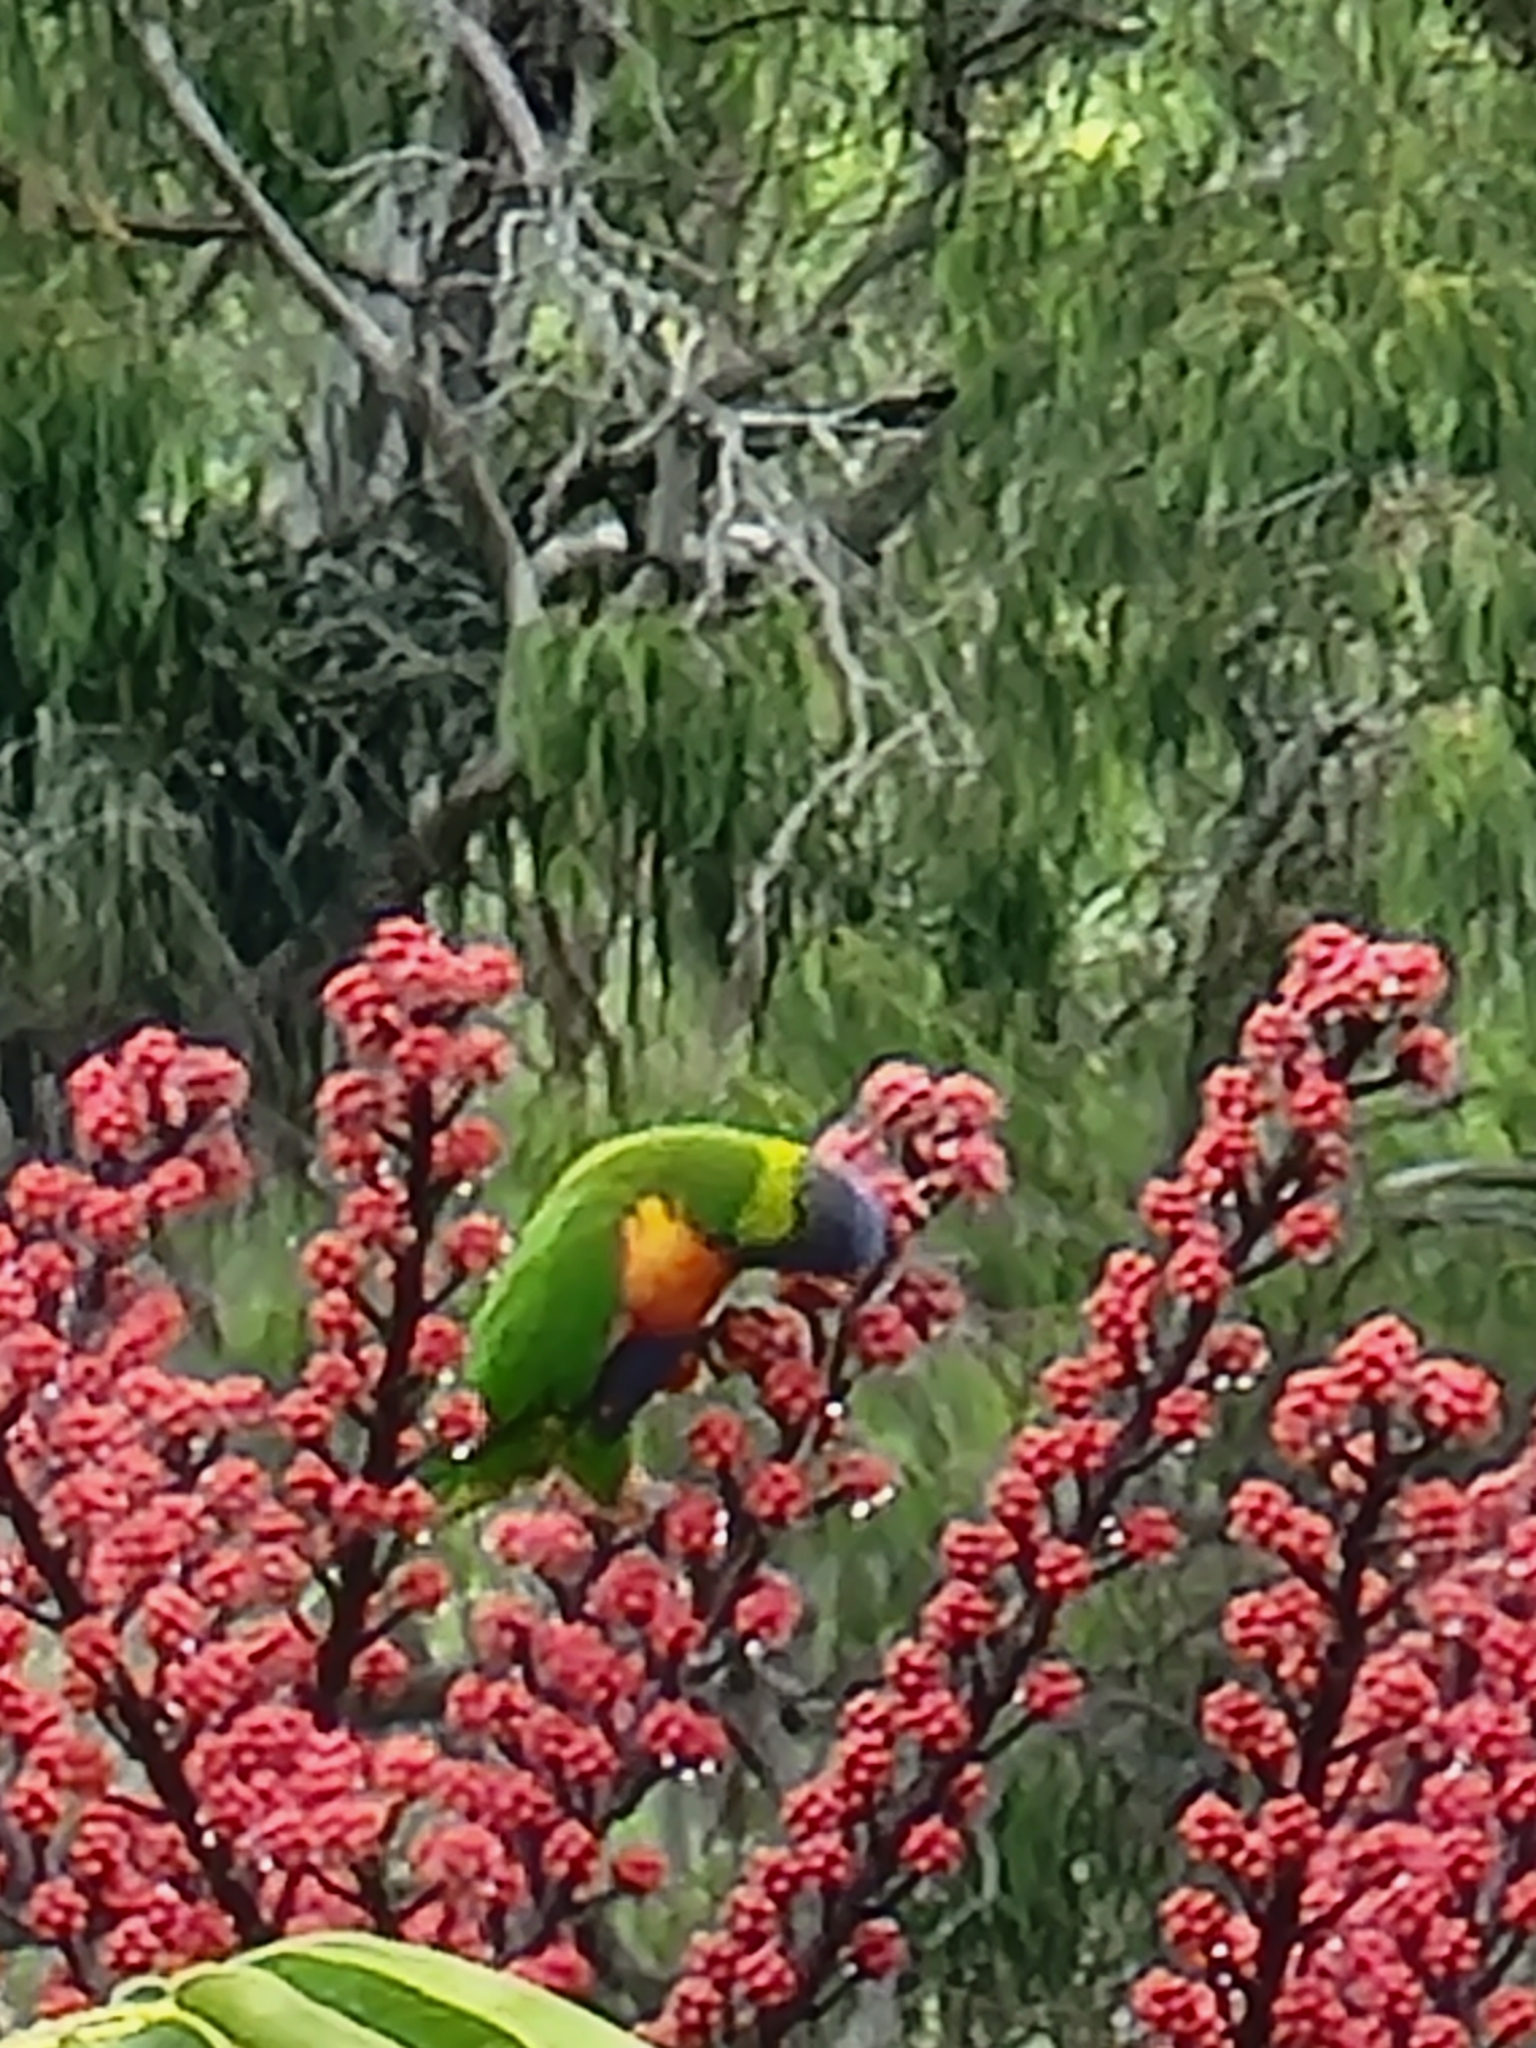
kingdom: Animalia
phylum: Chordata
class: Aves
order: Psittaciformes
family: Psittacidae
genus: Trichoglossus
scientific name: Trichoglossus haematodus
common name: Coconut lorikeet
